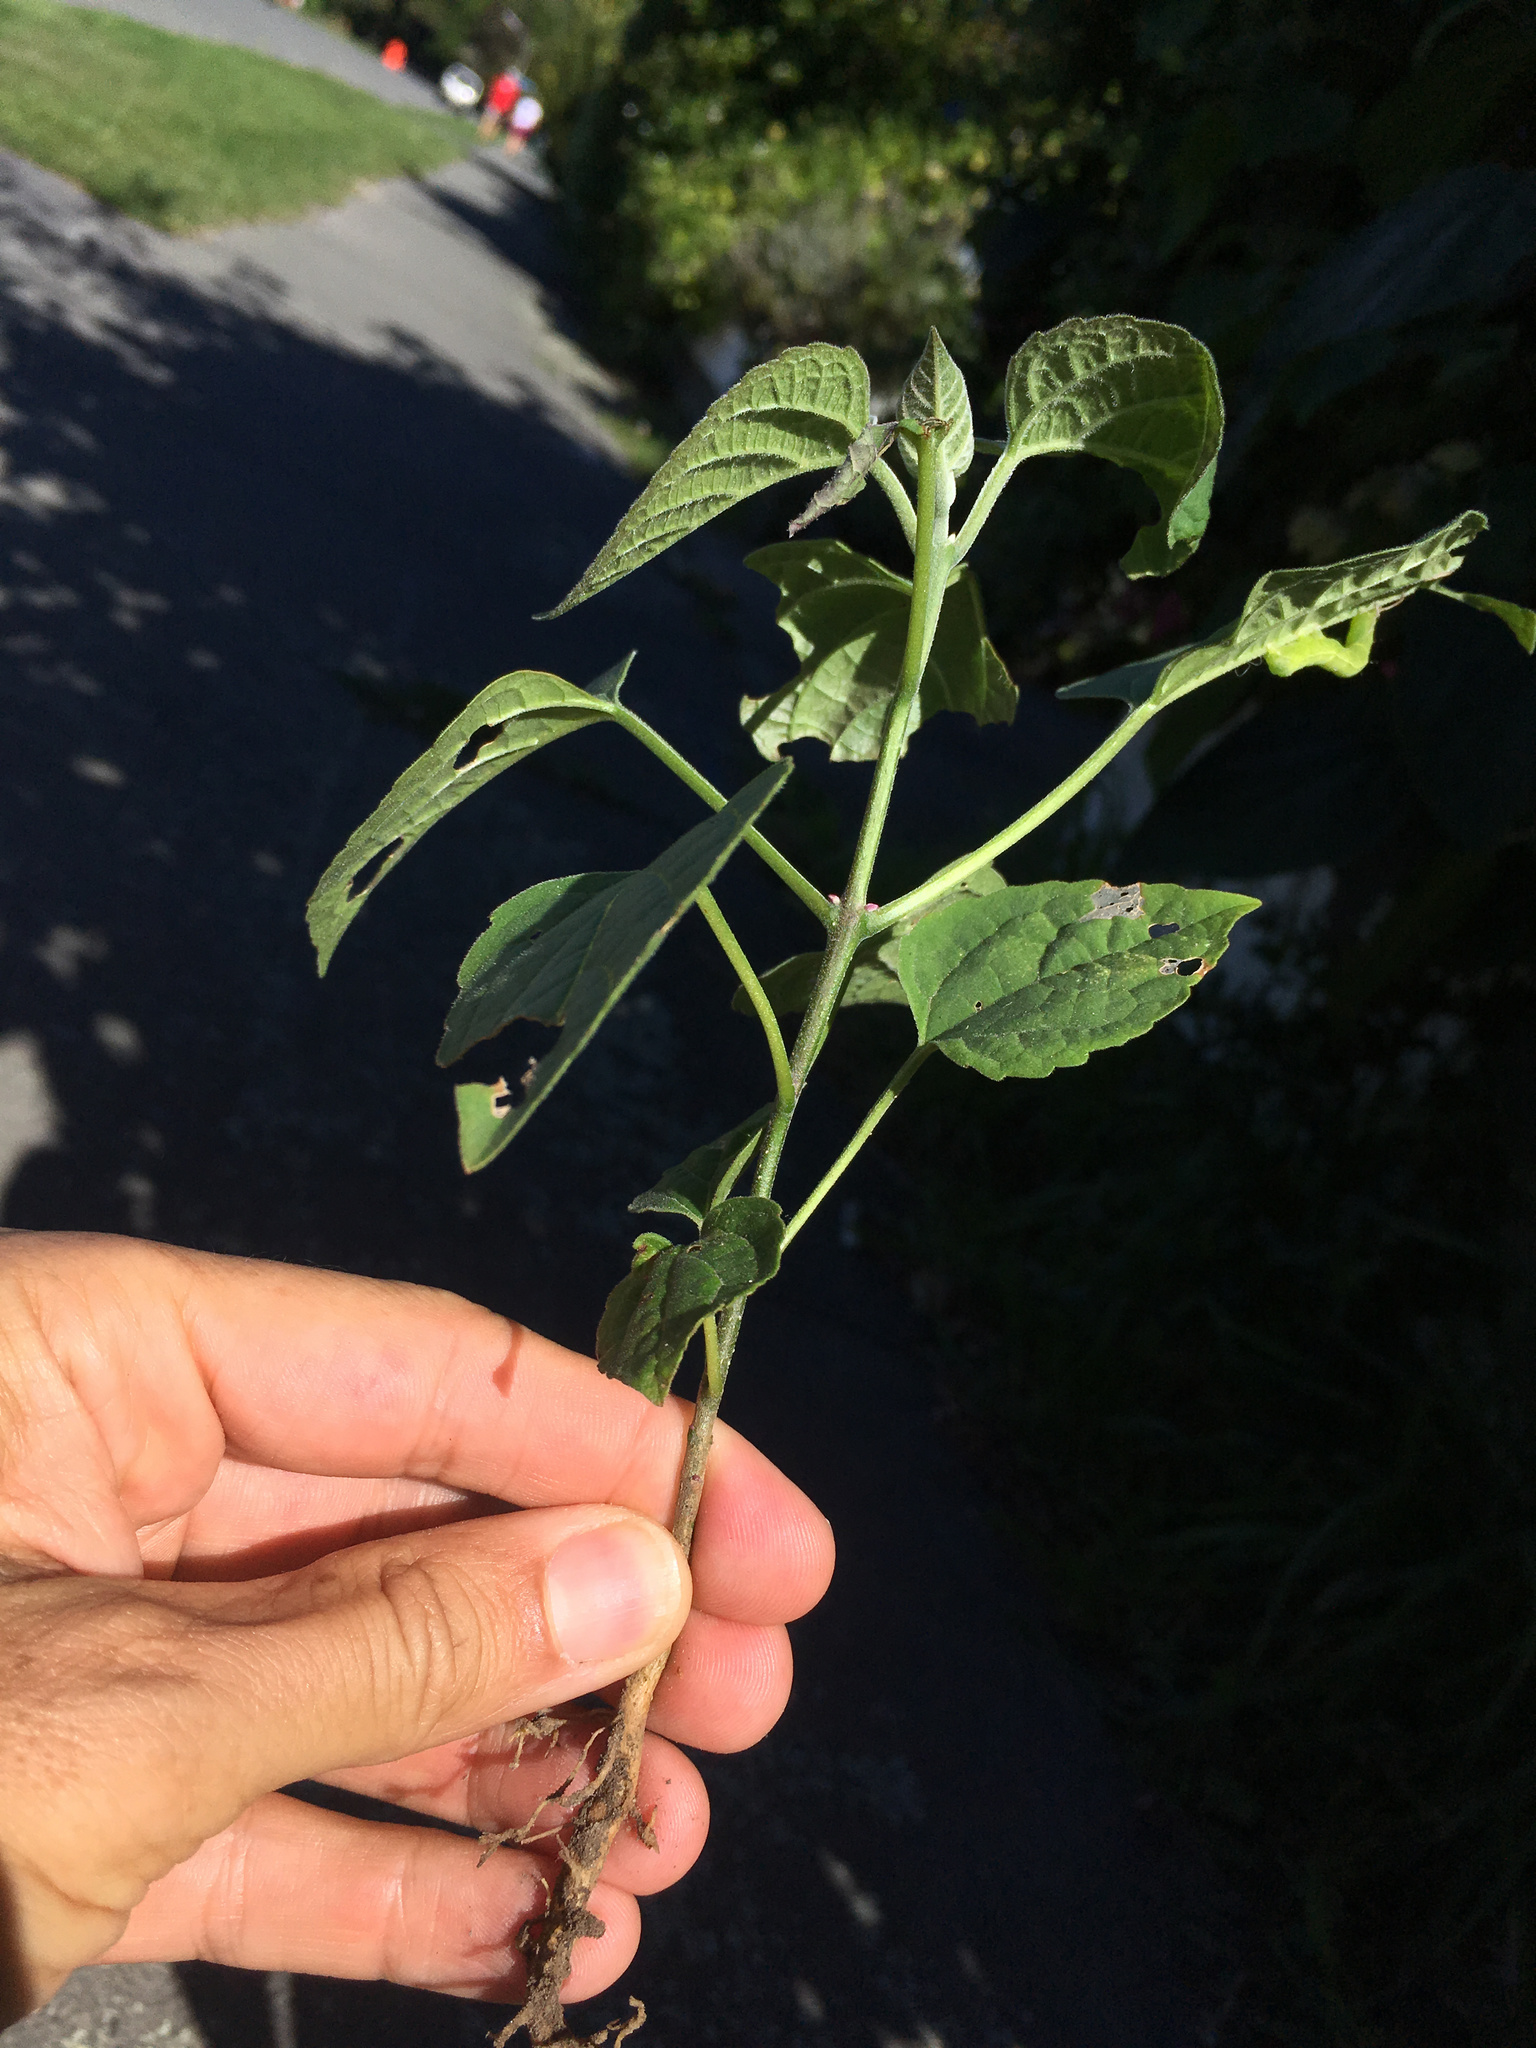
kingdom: Plantae
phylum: Tracheophyta
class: Magnoliopsida
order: Lamiales
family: Lamiaceae
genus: Clerodendrum
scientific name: Clerodendrum trichotomum
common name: Harlequin glorybower
